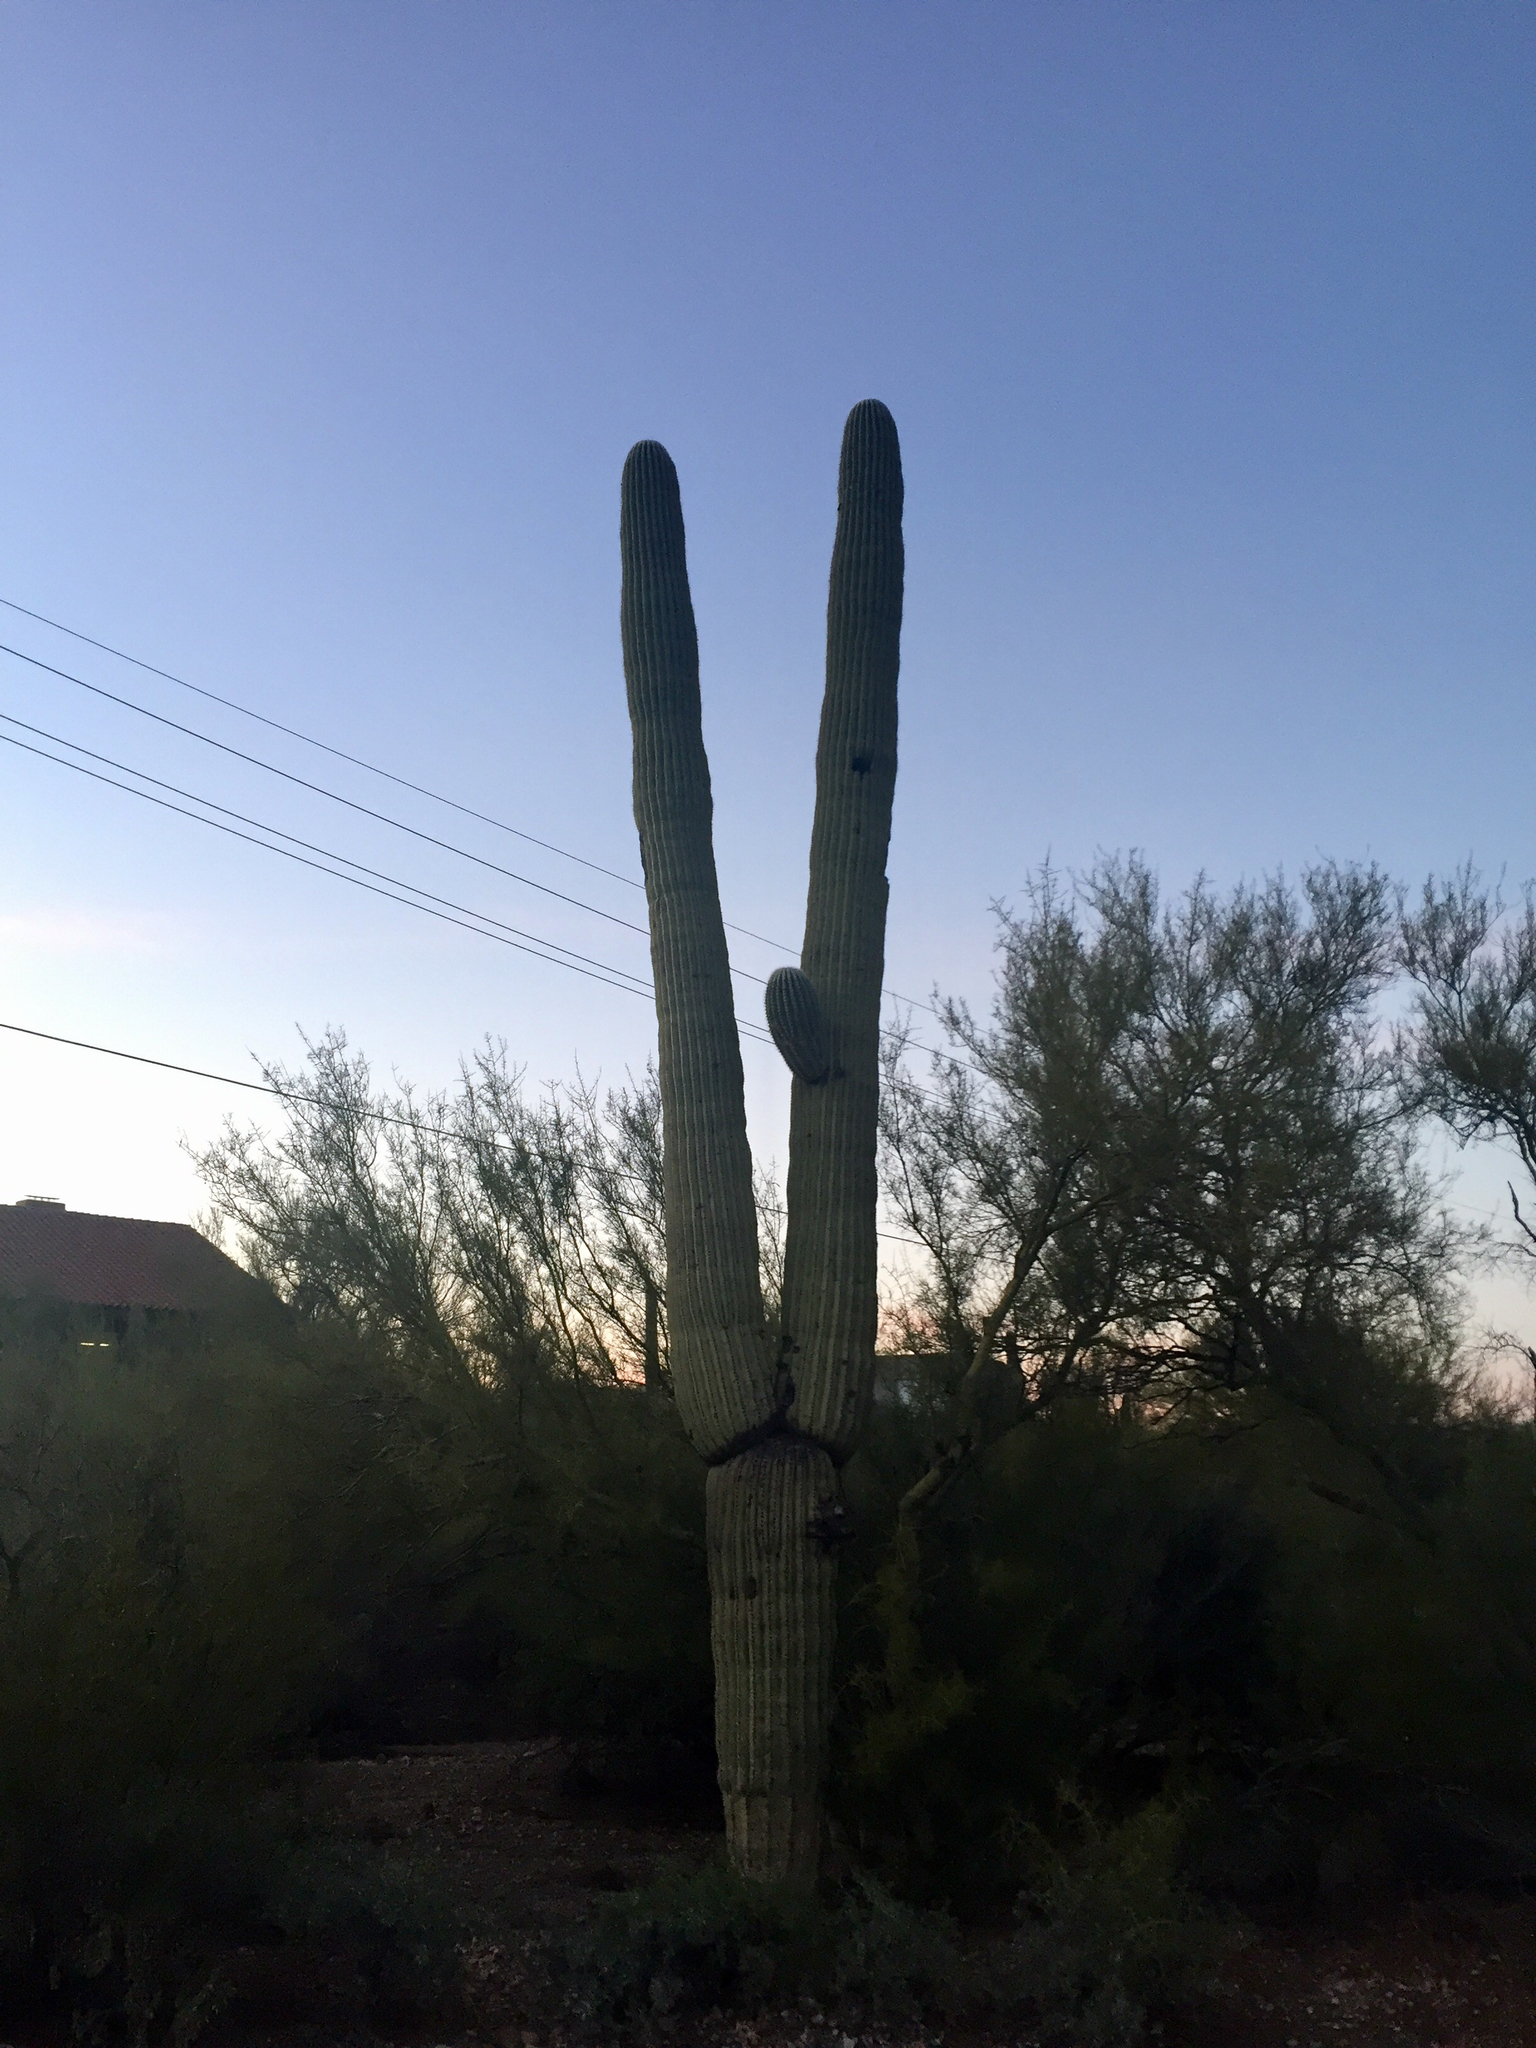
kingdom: Plantae
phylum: Tracheophyta
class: Magnoliopsida
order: Caryophyllales
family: Cactaceae
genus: Carnegiea
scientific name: Carnegiea gigantea
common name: Saguaro
